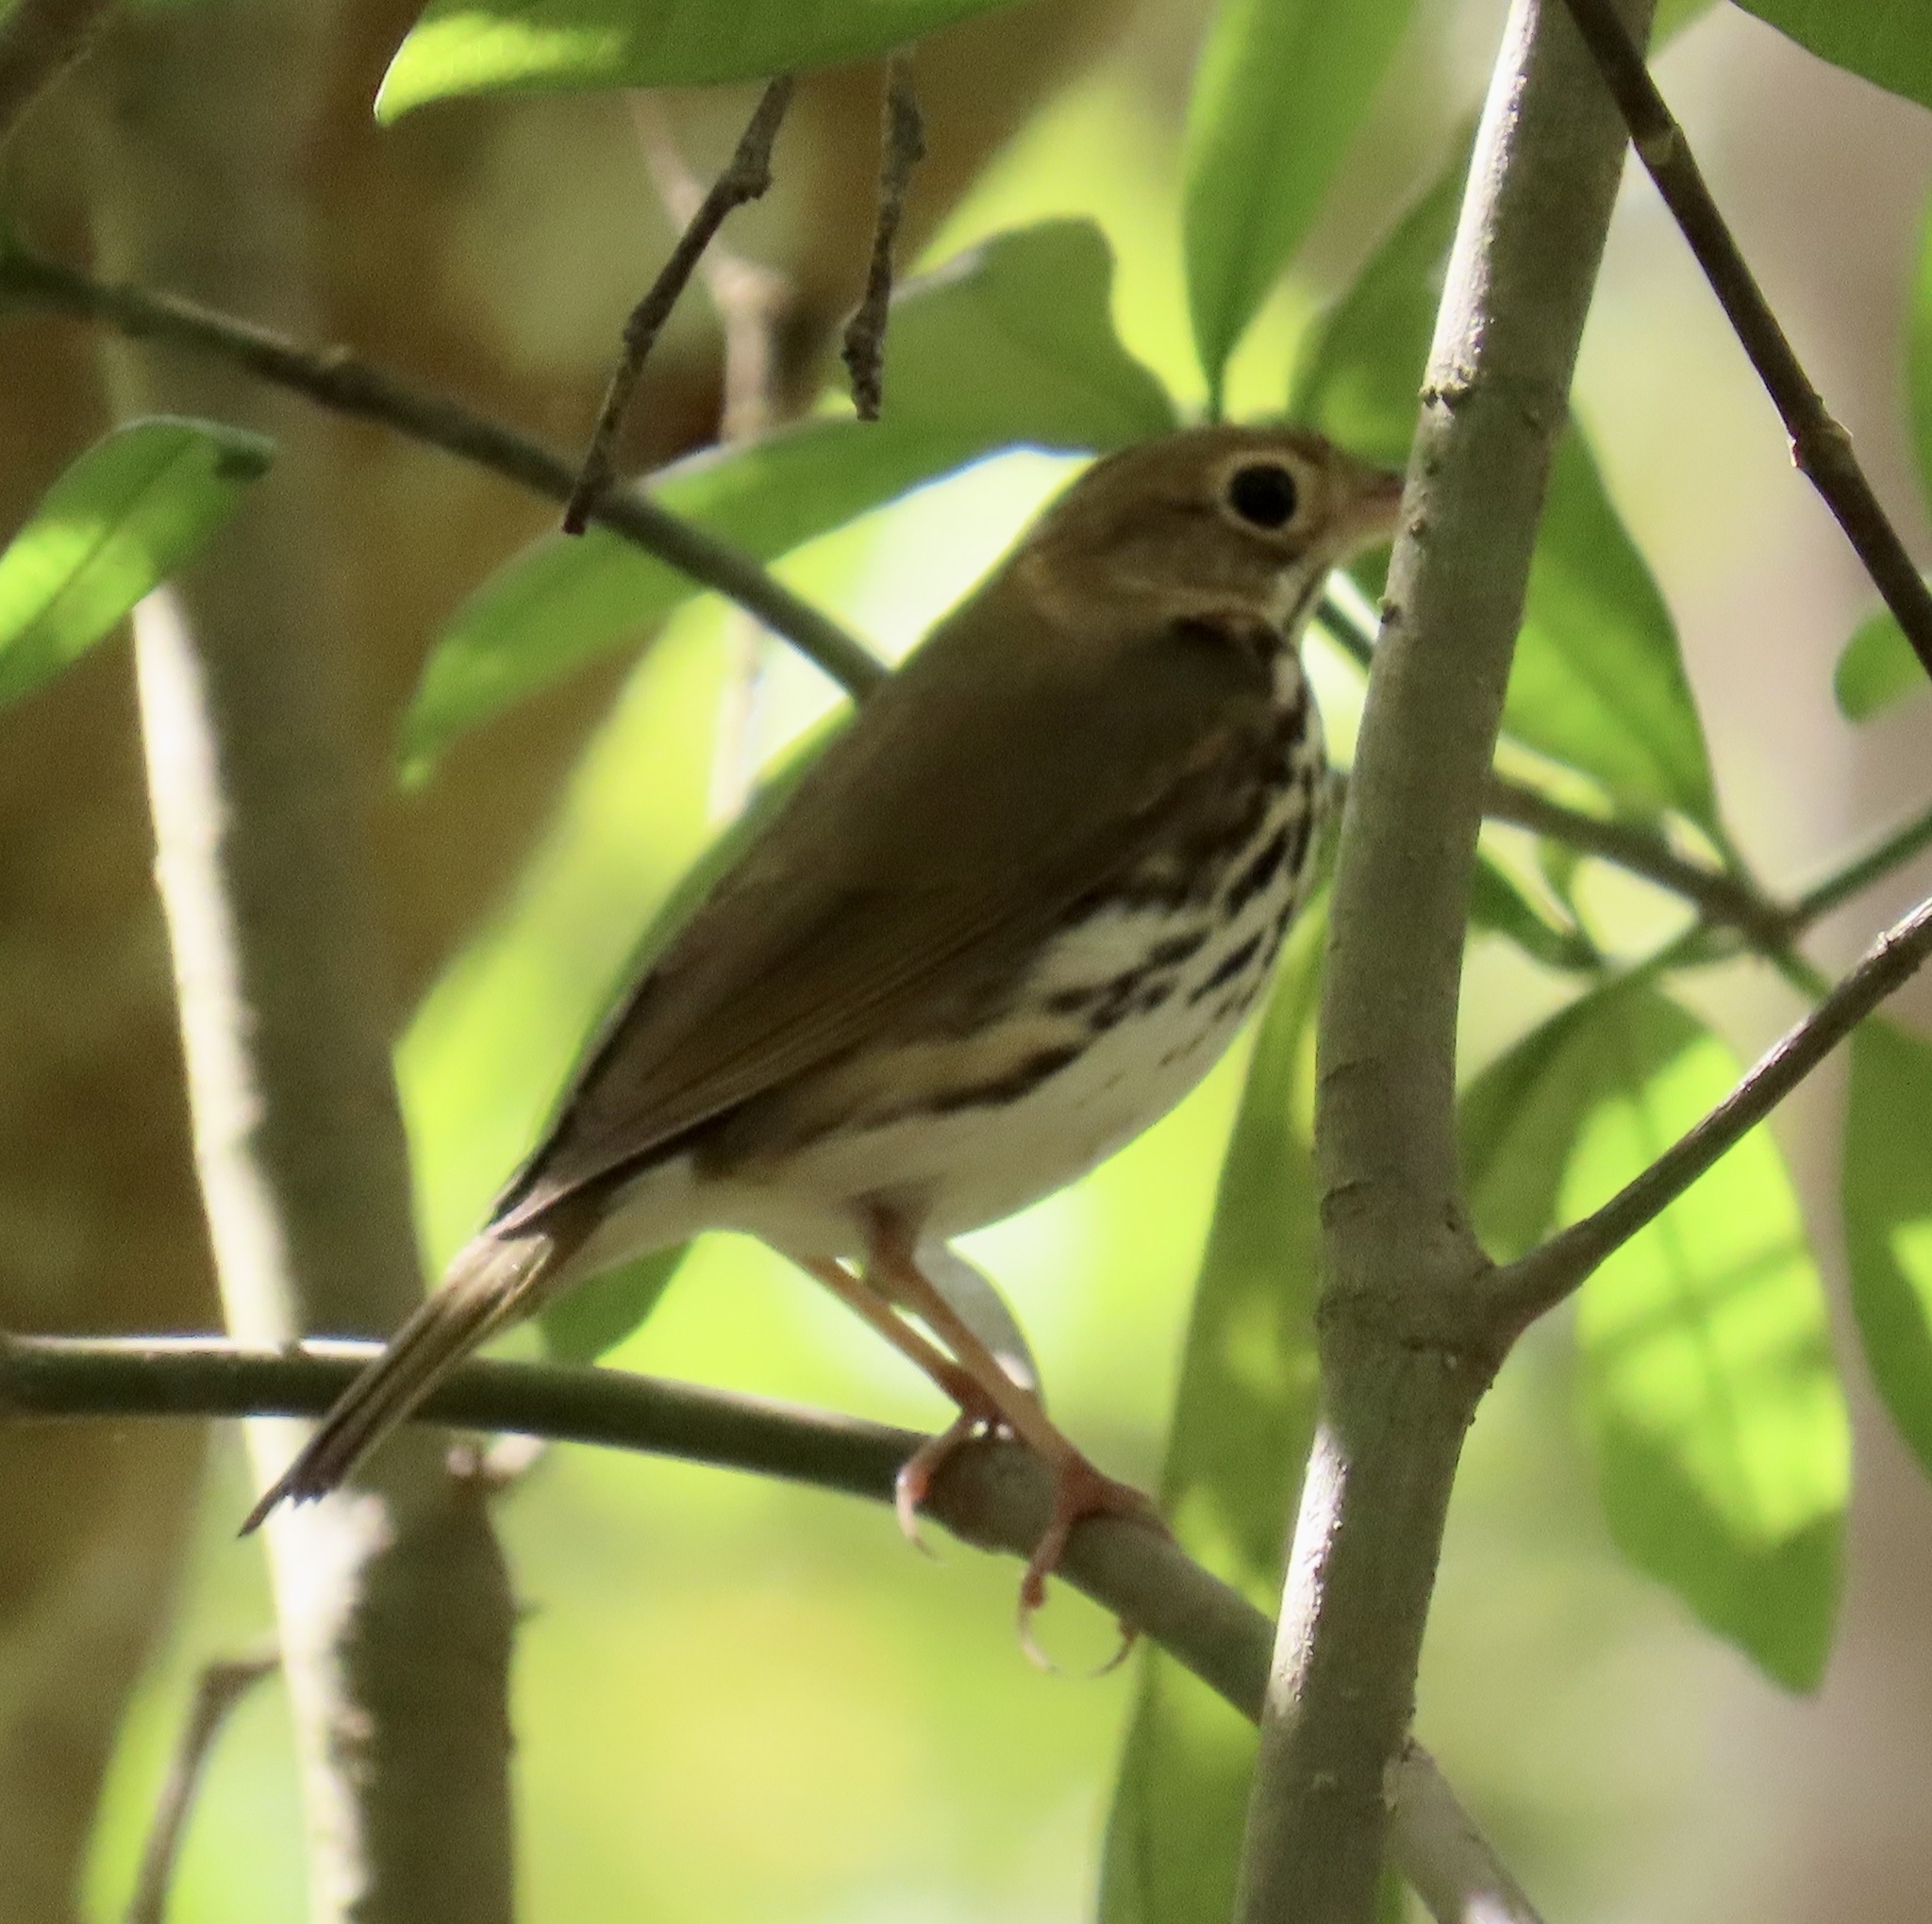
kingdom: Animalia
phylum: Chordata
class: Aves
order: Passeriformes
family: Parulidae
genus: Seiurus
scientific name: Seiurus aurocapilla
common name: Ovenbird
